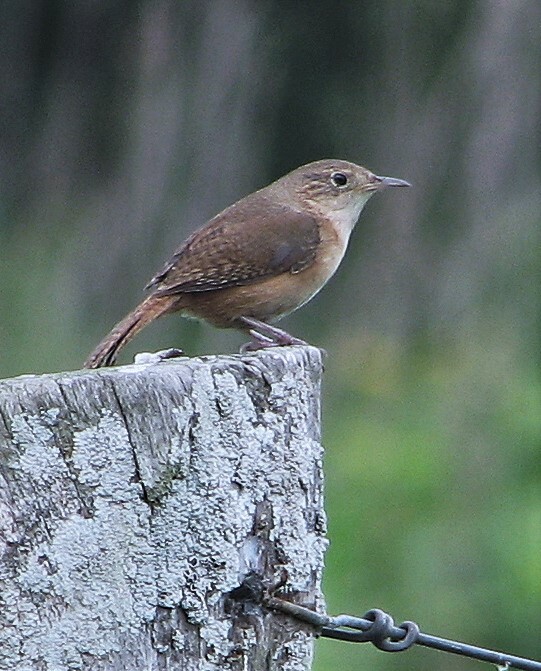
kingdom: Animalia
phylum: Chordata
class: Aves
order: Passeriformes
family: Troglodytidae
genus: Troglodytes
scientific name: Troglodytes aedon
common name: House wren
